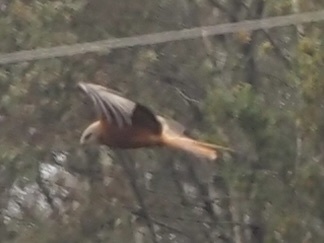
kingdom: Animalia
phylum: Chordata
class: Aves
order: Accipitriformes
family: Accipitridae
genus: Milvus
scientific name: Milvus milvus
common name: Red kite
